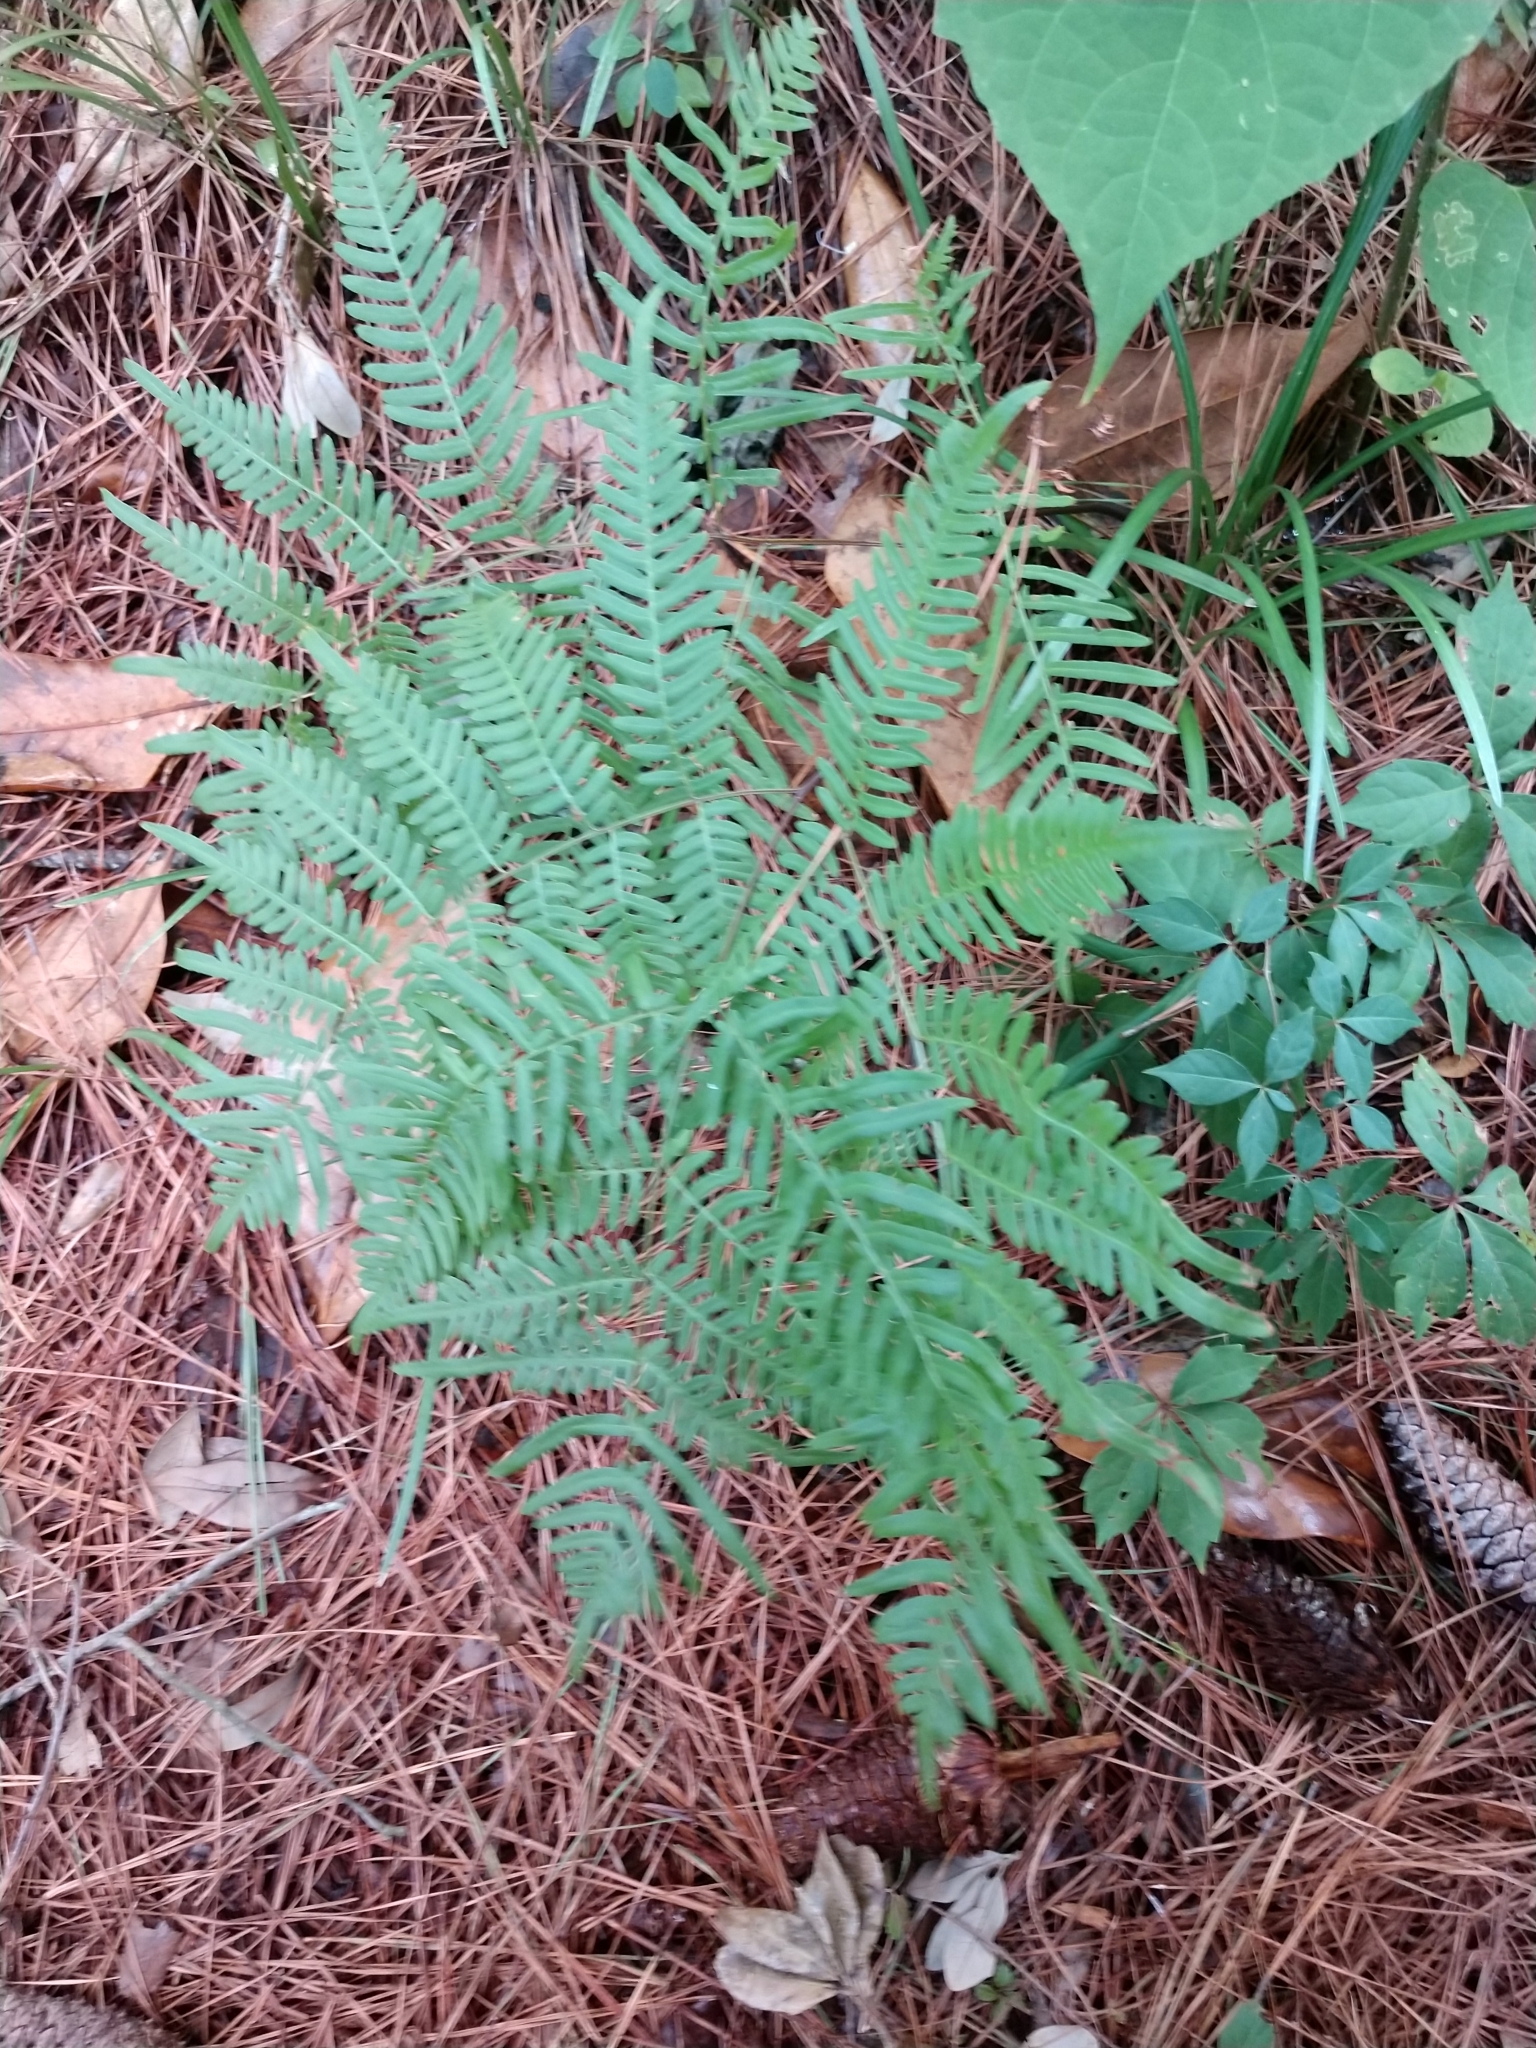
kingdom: Plantae
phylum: Tracheophyta
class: Polypodiopsida
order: Polypodiales
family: Dennstaedtiaceae
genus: Pteridium
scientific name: Pteridium
